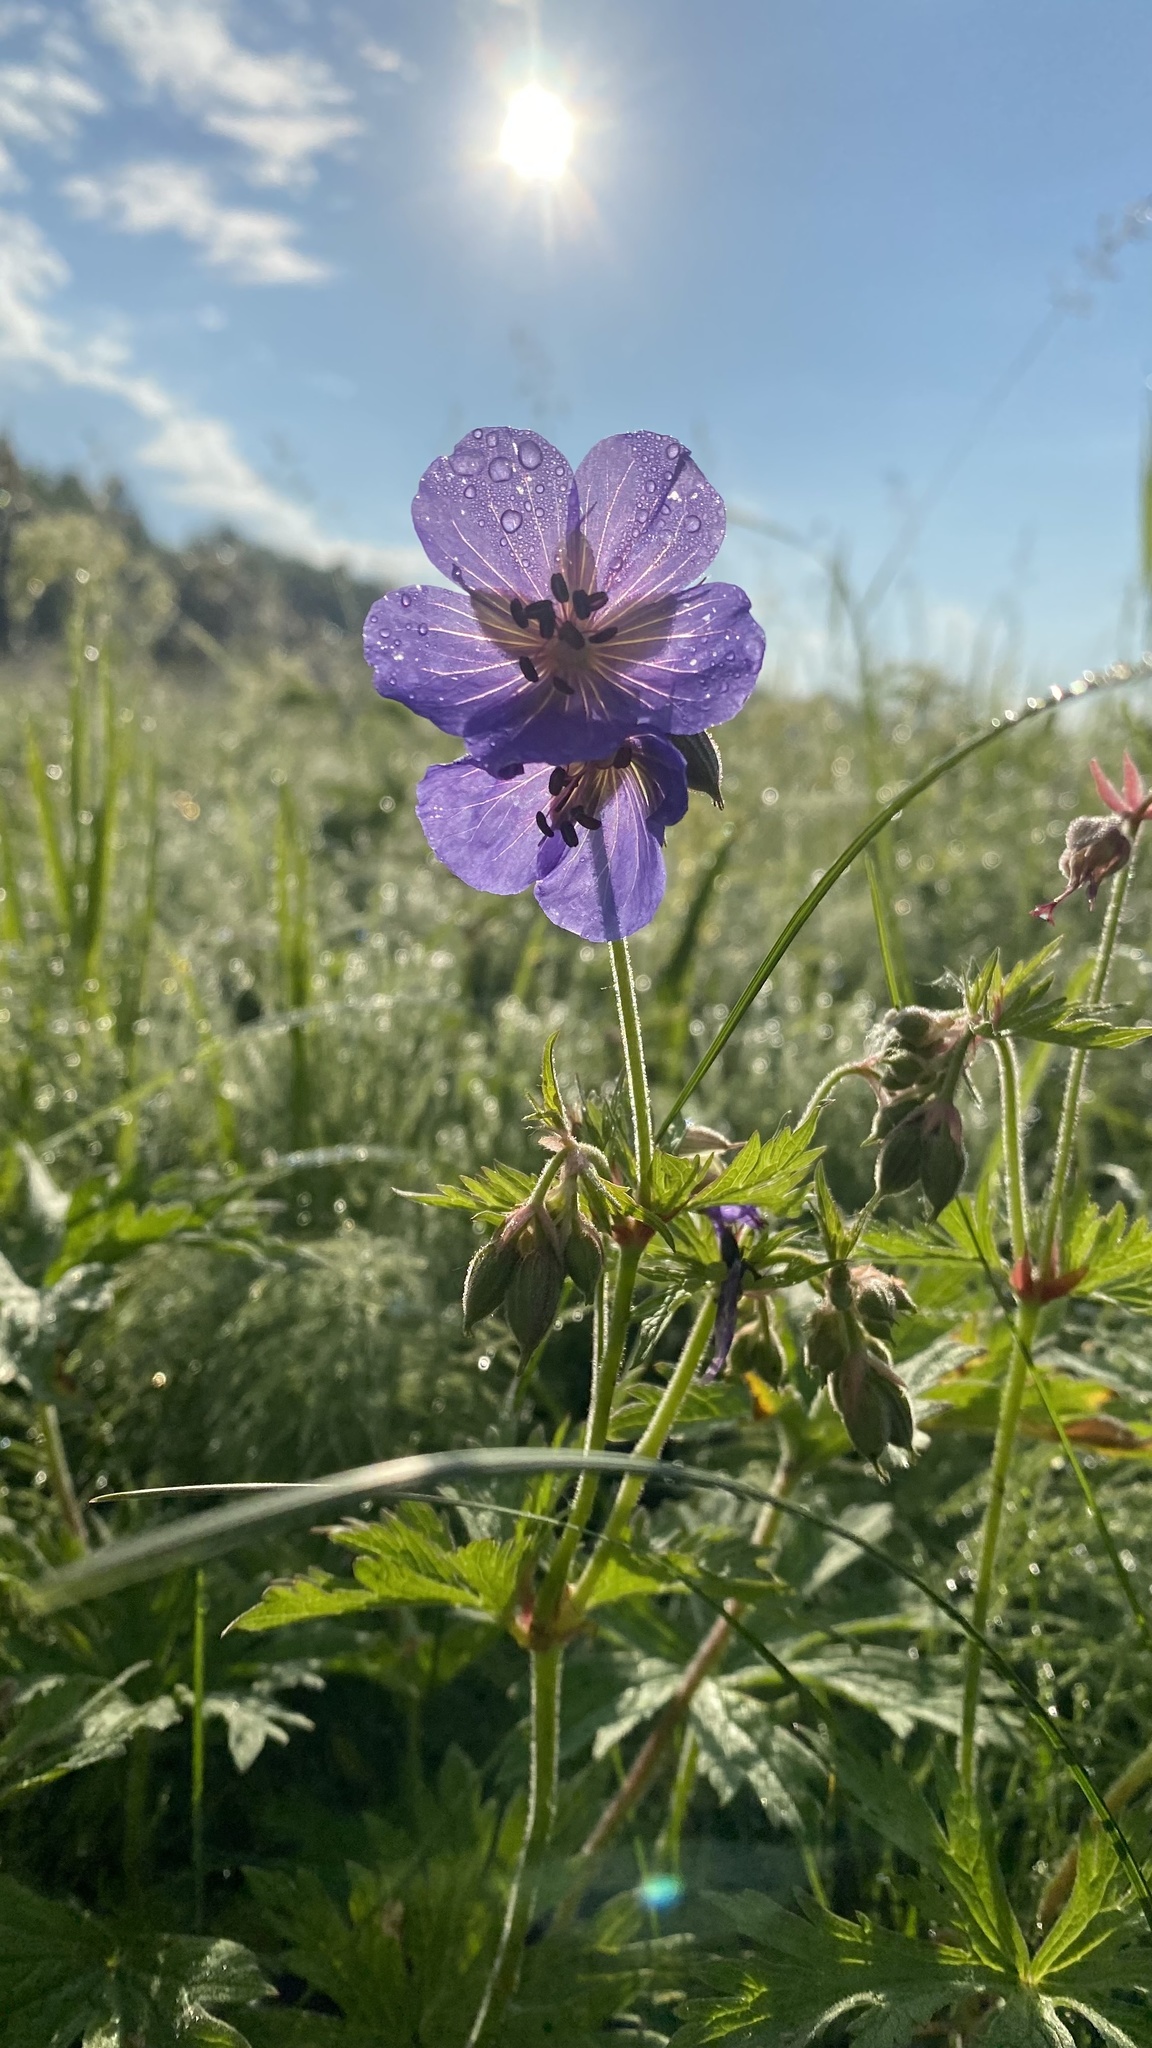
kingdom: Plantae
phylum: Tracheophyta
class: Magnoliopsida
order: Geraniales
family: Geraniaceae
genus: Geranium
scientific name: Geranium pratense
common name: Meadow crane's-bill
